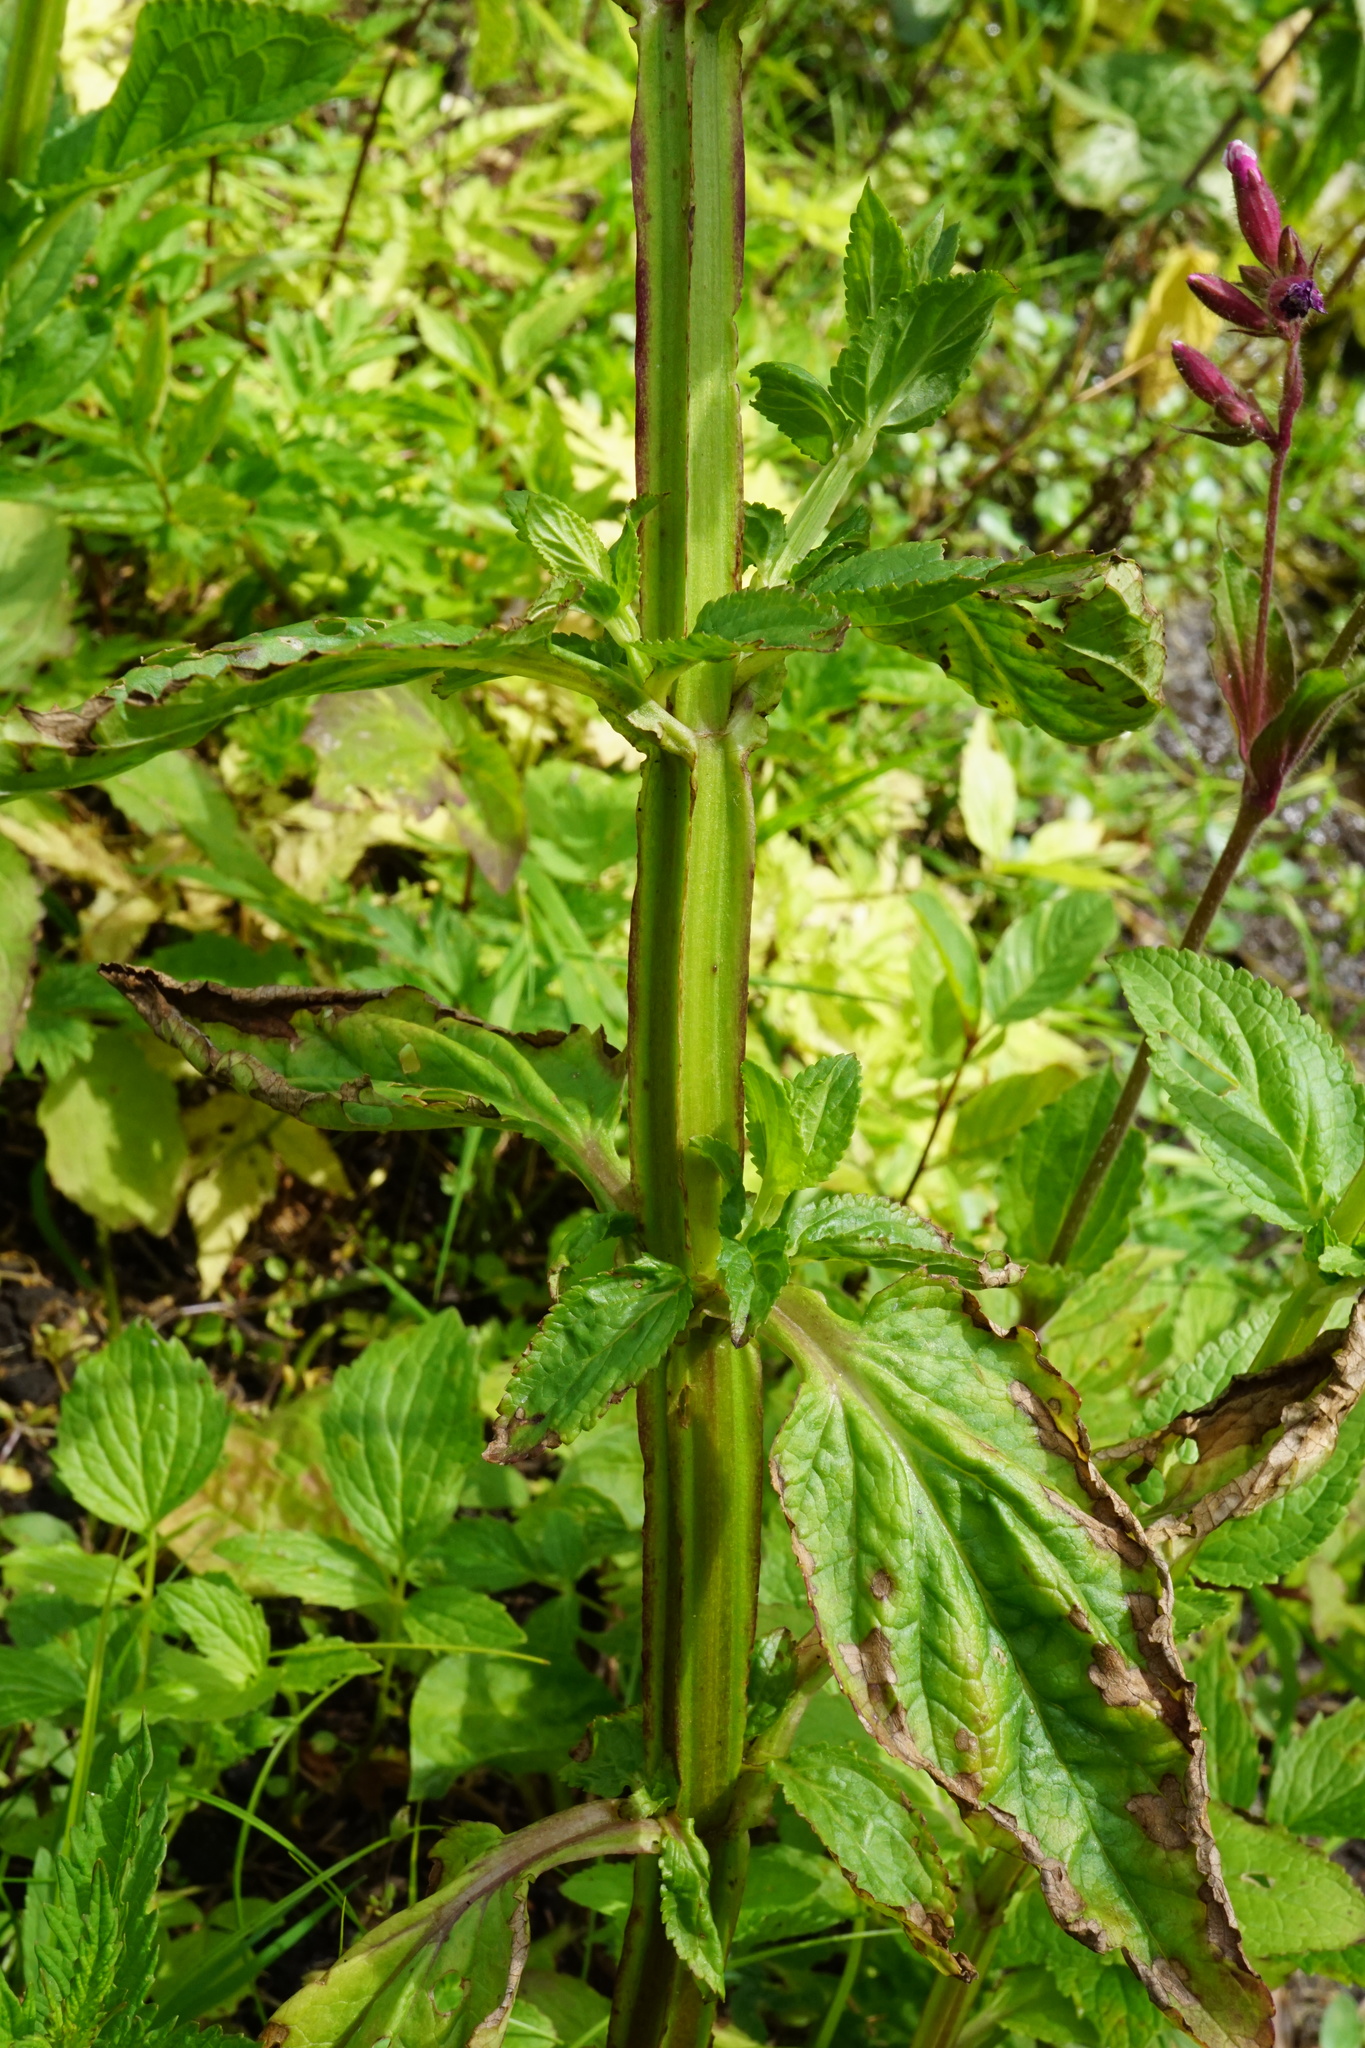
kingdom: Plantae
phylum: Tracheophyta
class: Magnoliopsida
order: Lamiales
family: Scrophulariaceae
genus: Scrophularia
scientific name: Scrophularia umbrosa
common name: Green figwort
